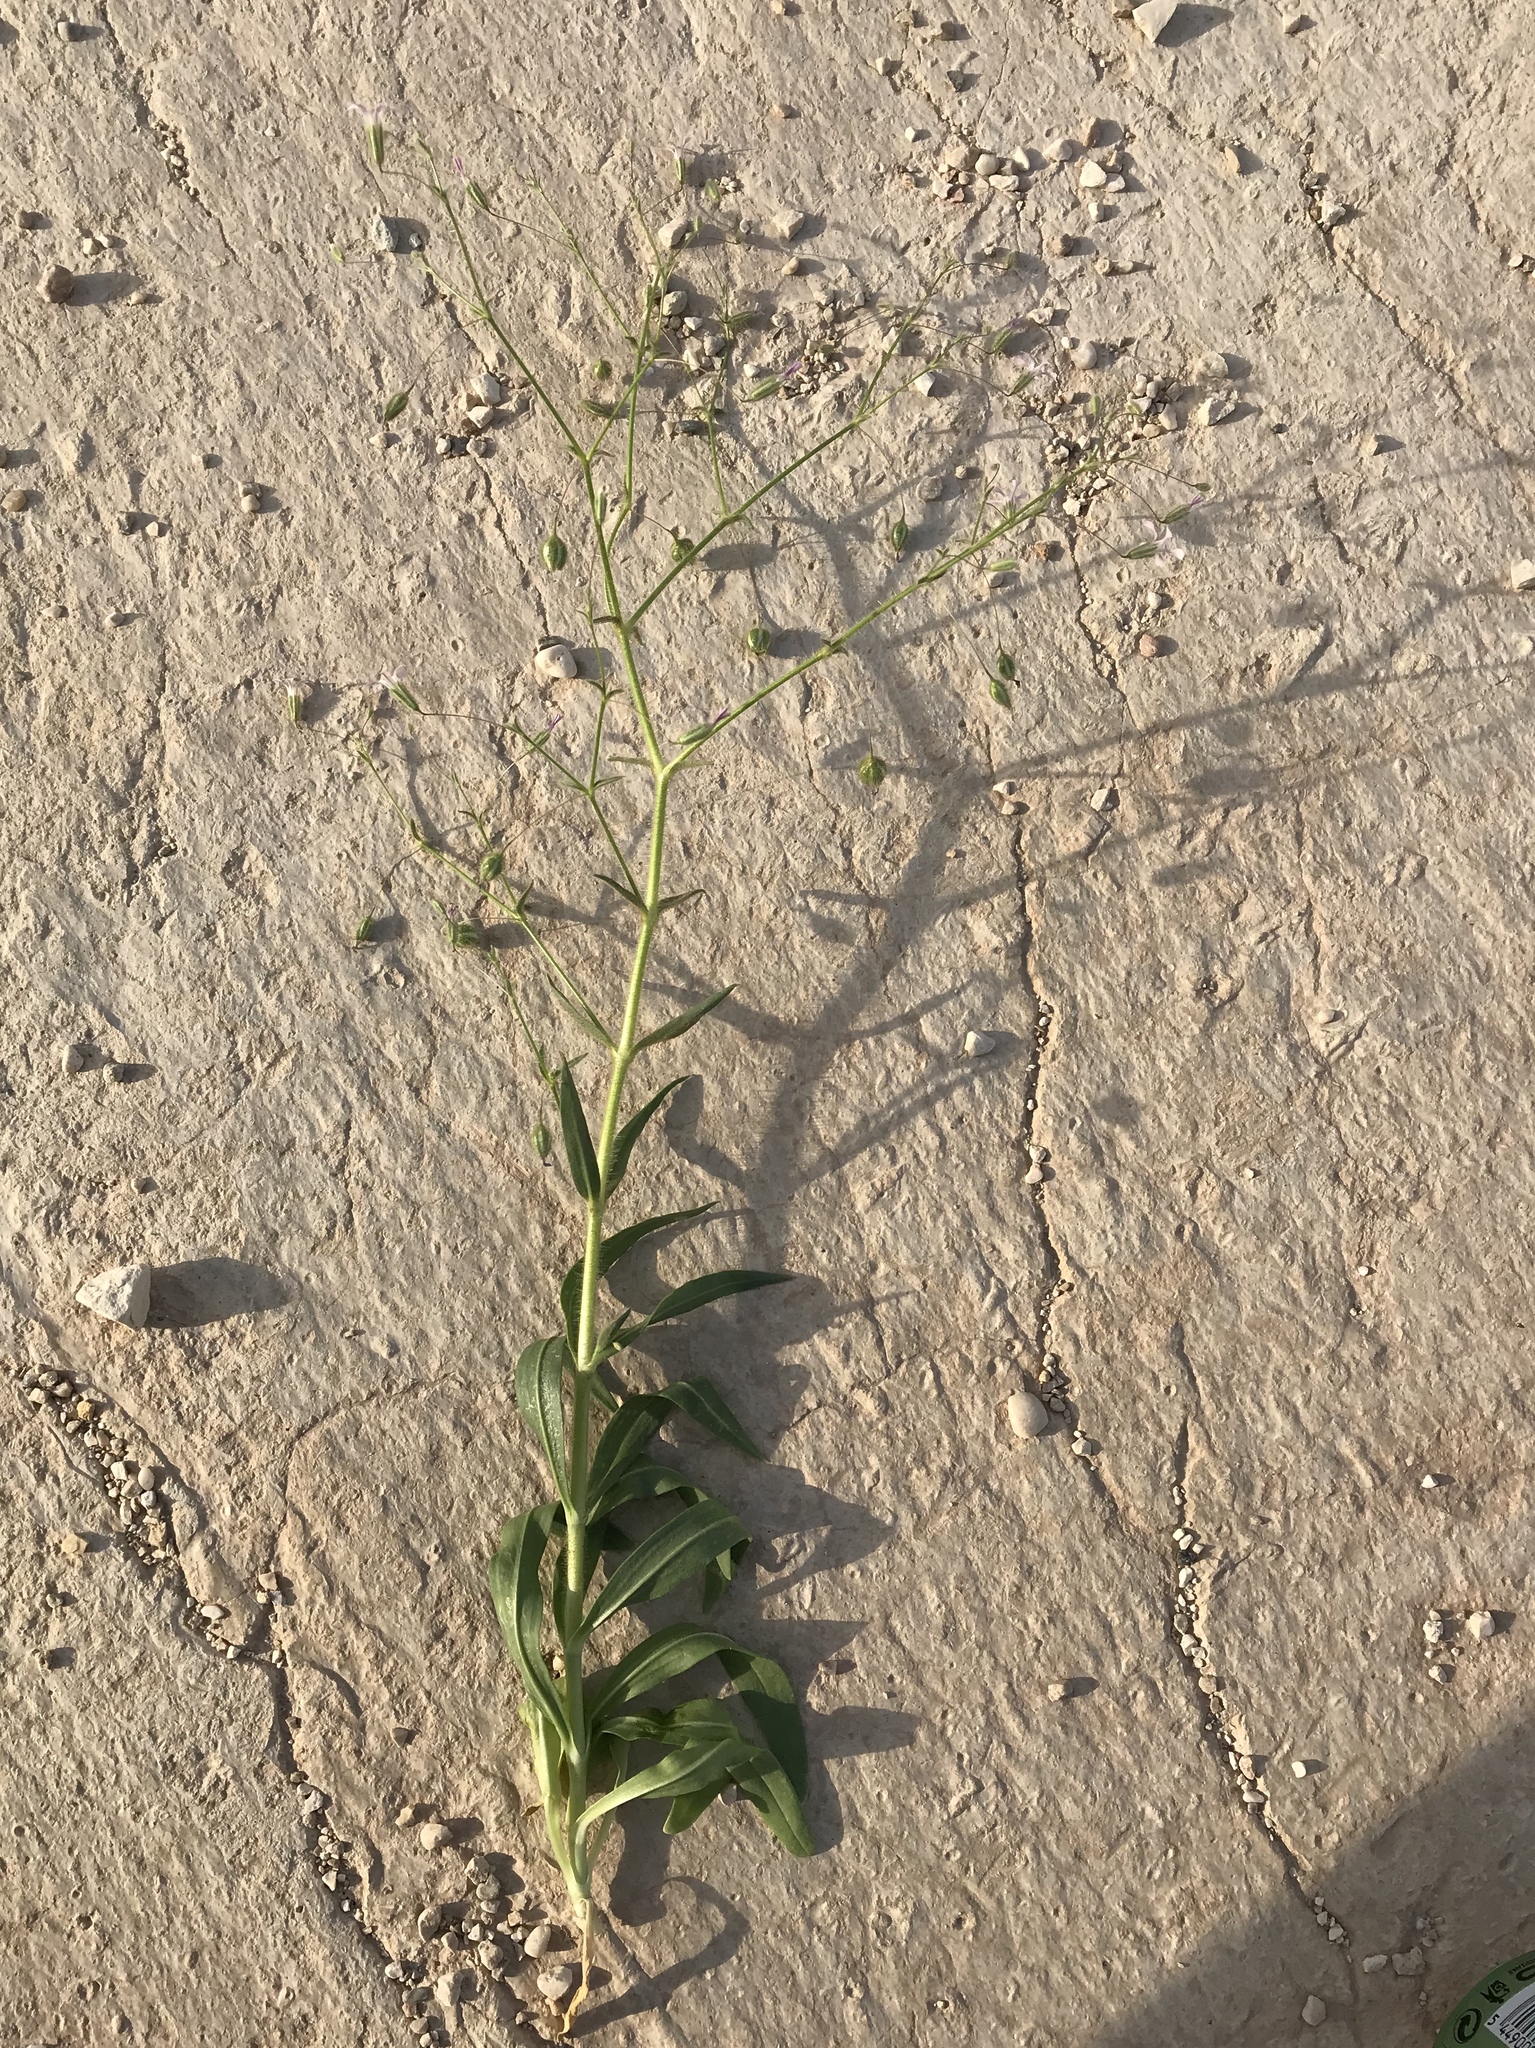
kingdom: Plantae
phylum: Tracheophyta
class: Magnoliopsida
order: Caryophyllales
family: Caryophyllaceae
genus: Gypsophila
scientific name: Gypsophila pilosa
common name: Turkish baby's-breath
